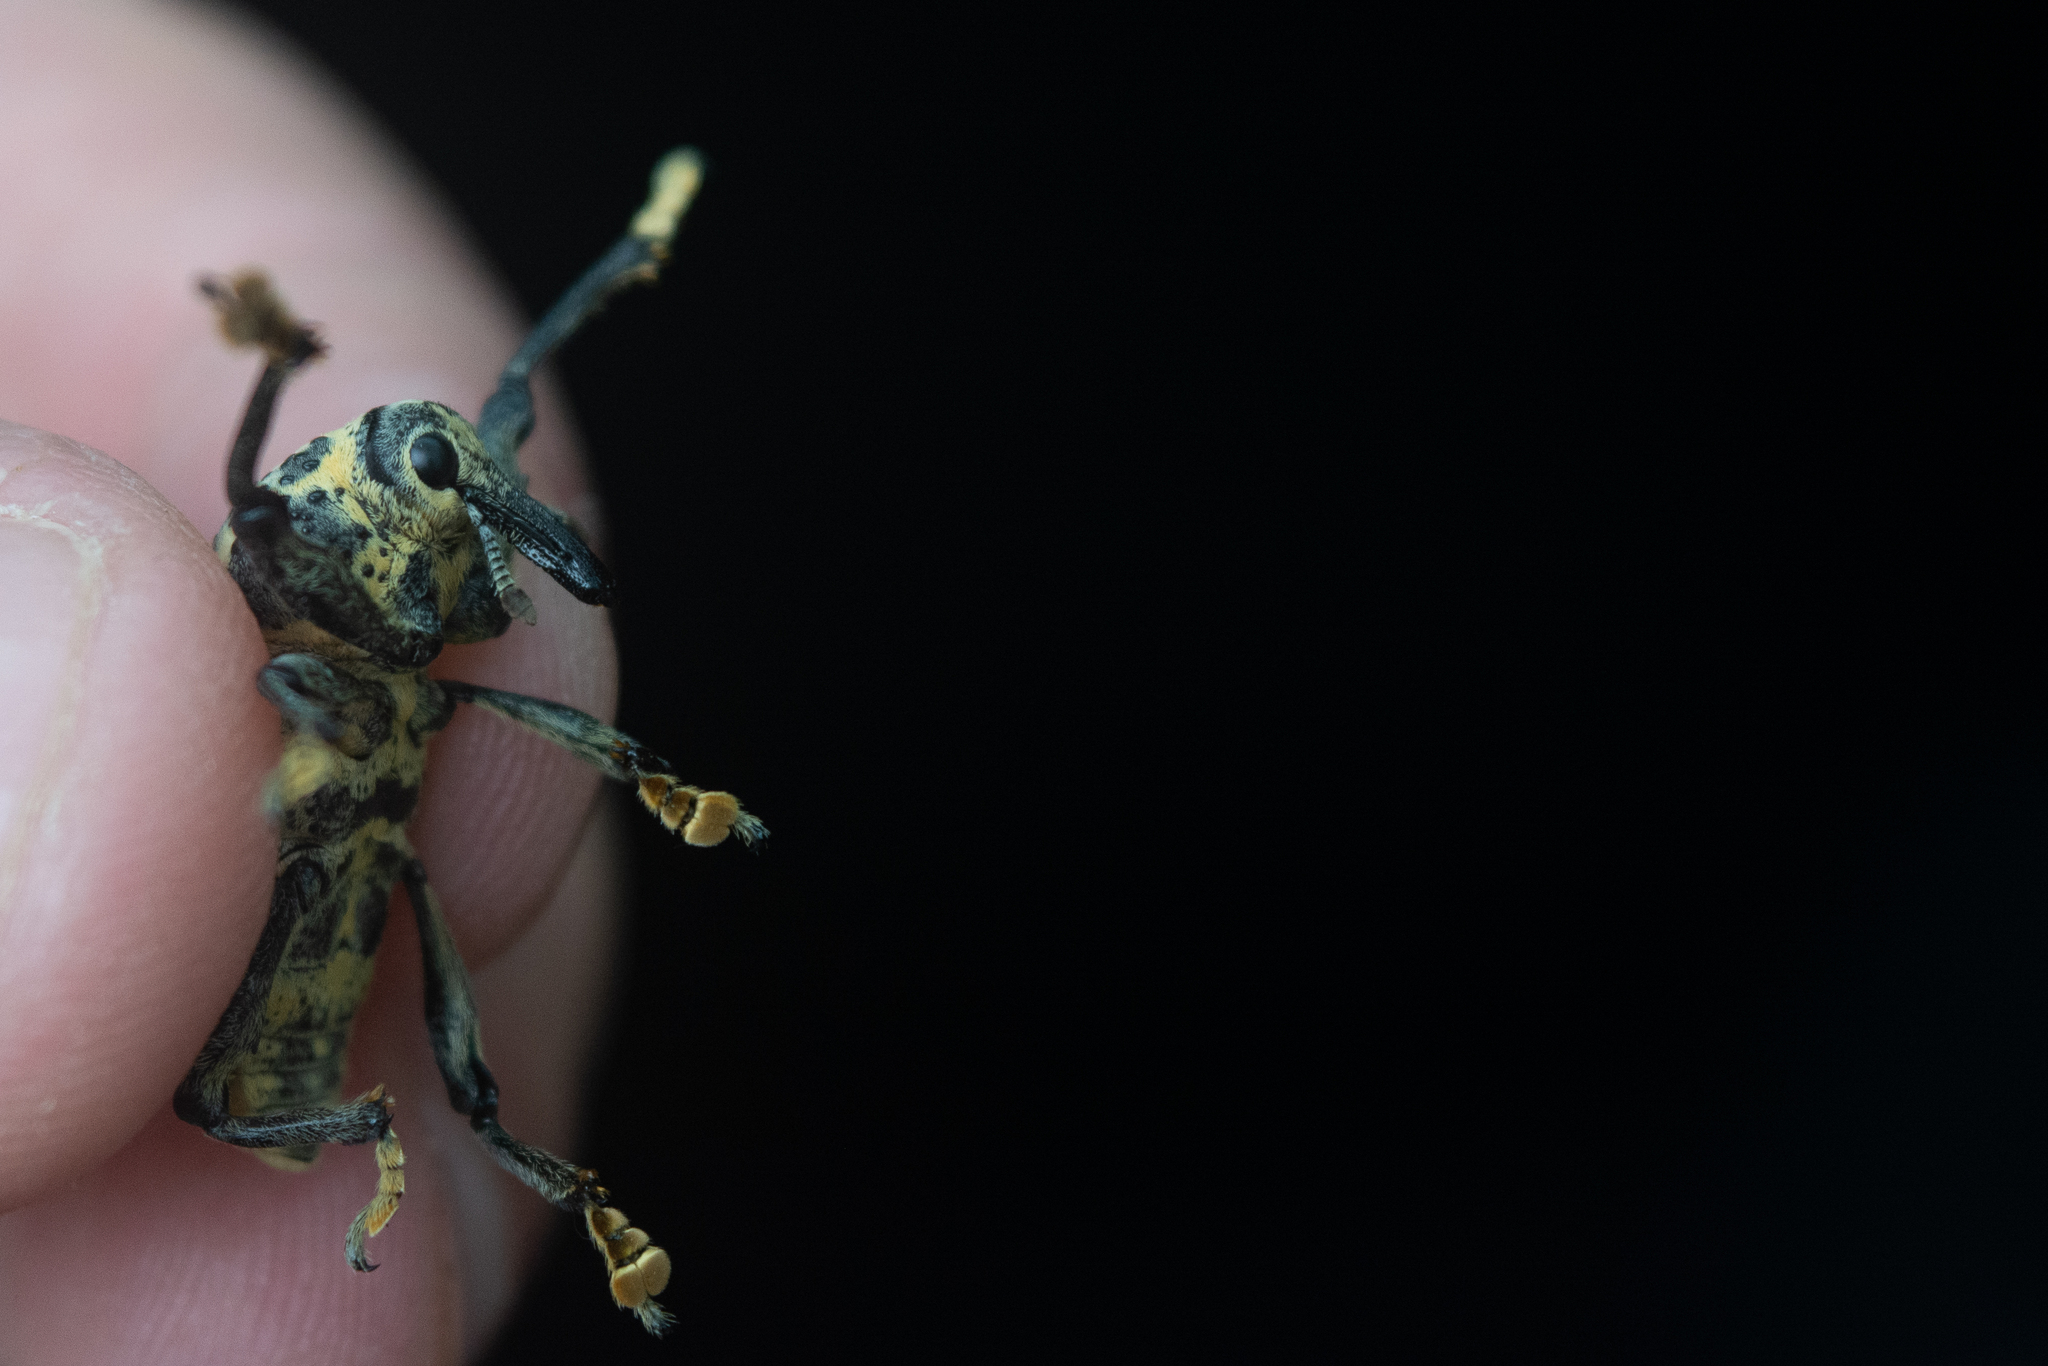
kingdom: Animalia
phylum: Arthropoda
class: Insecta
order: Coleoptera
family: Curculionidae
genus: Ameris
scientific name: Ameris ynca
